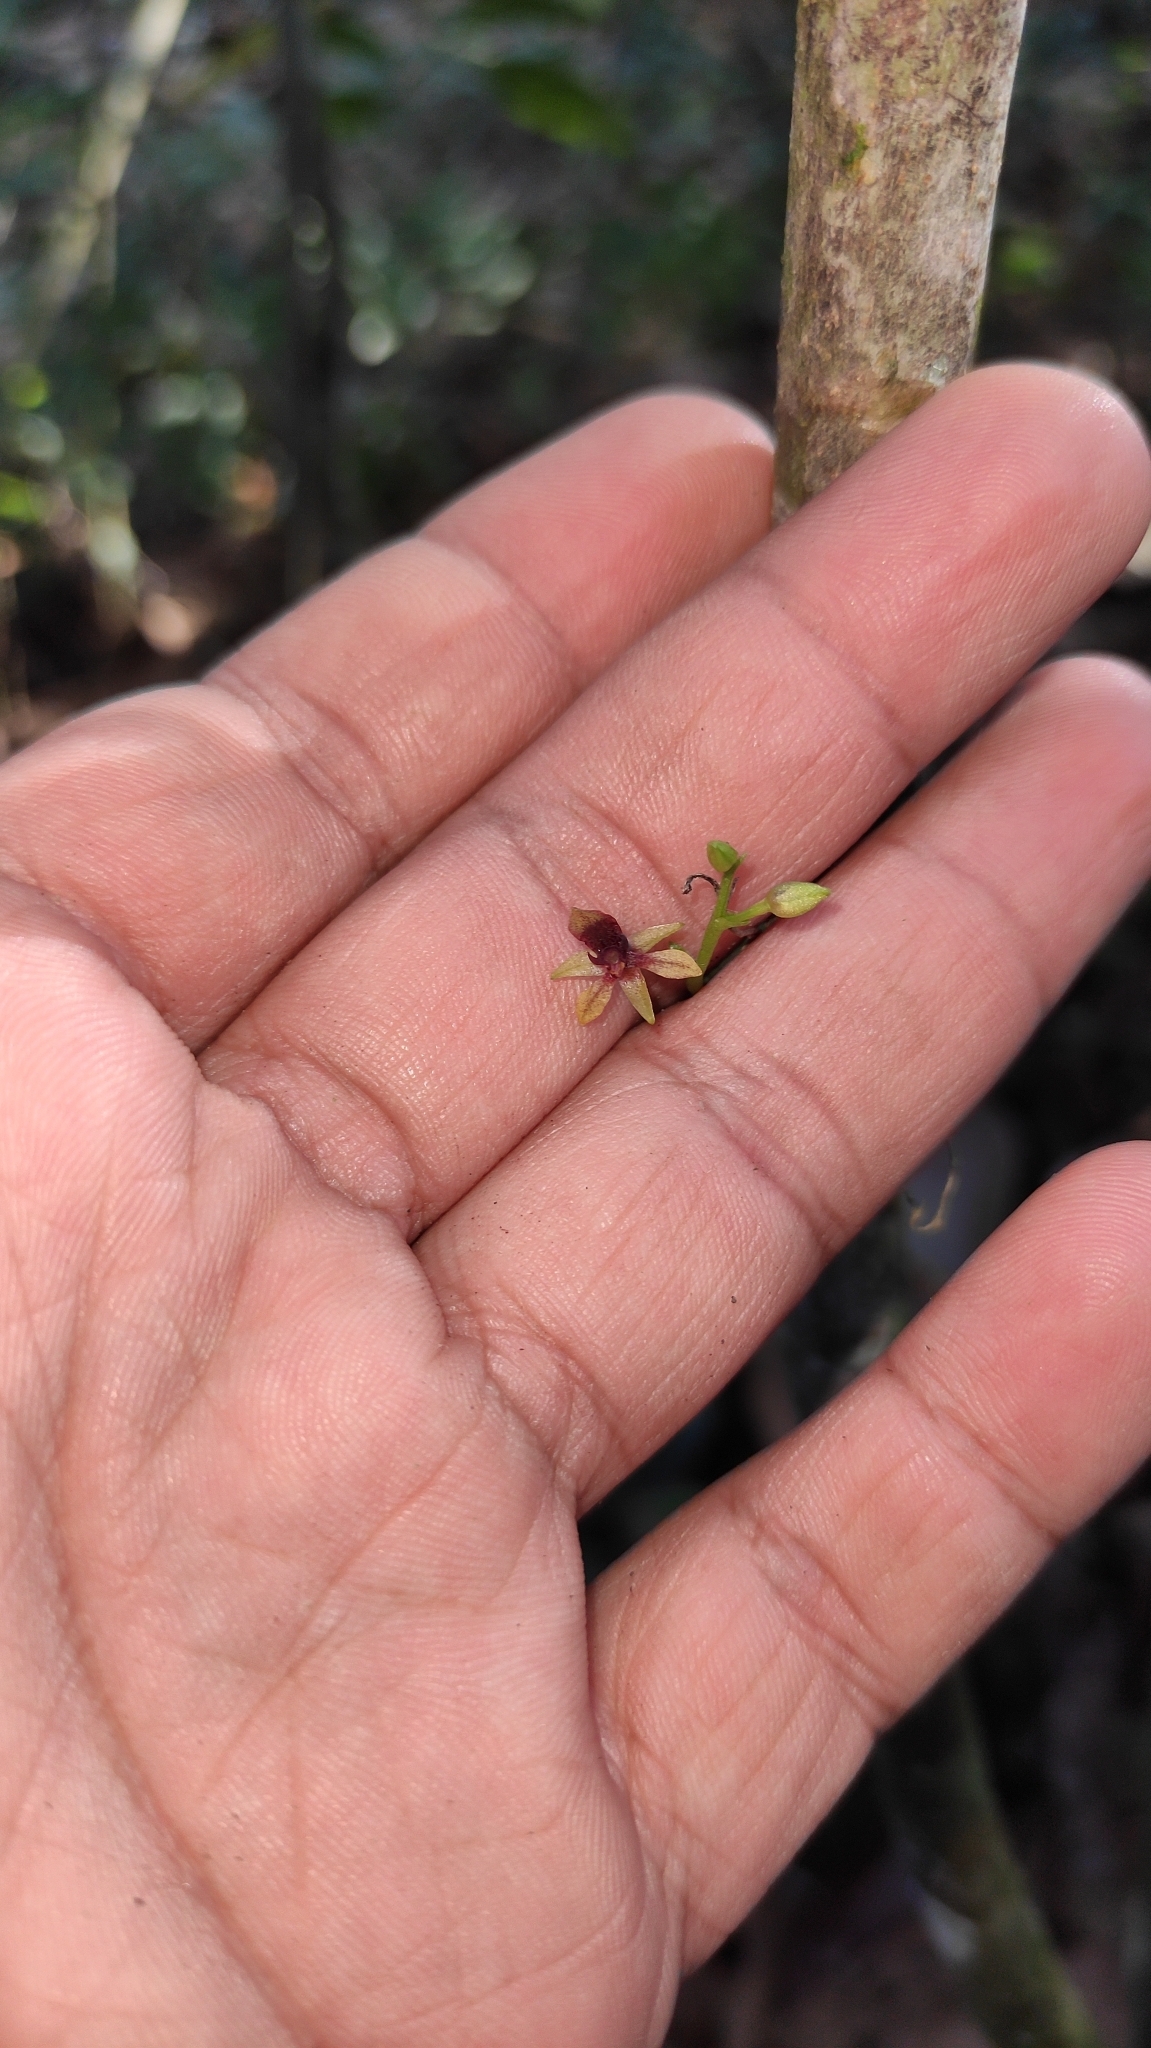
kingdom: Plantae
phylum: Tracheophyta
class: Liliopsida
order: Asparagales
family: Orchidaceae
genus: Telipogon
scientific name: Telipogon williamsii
